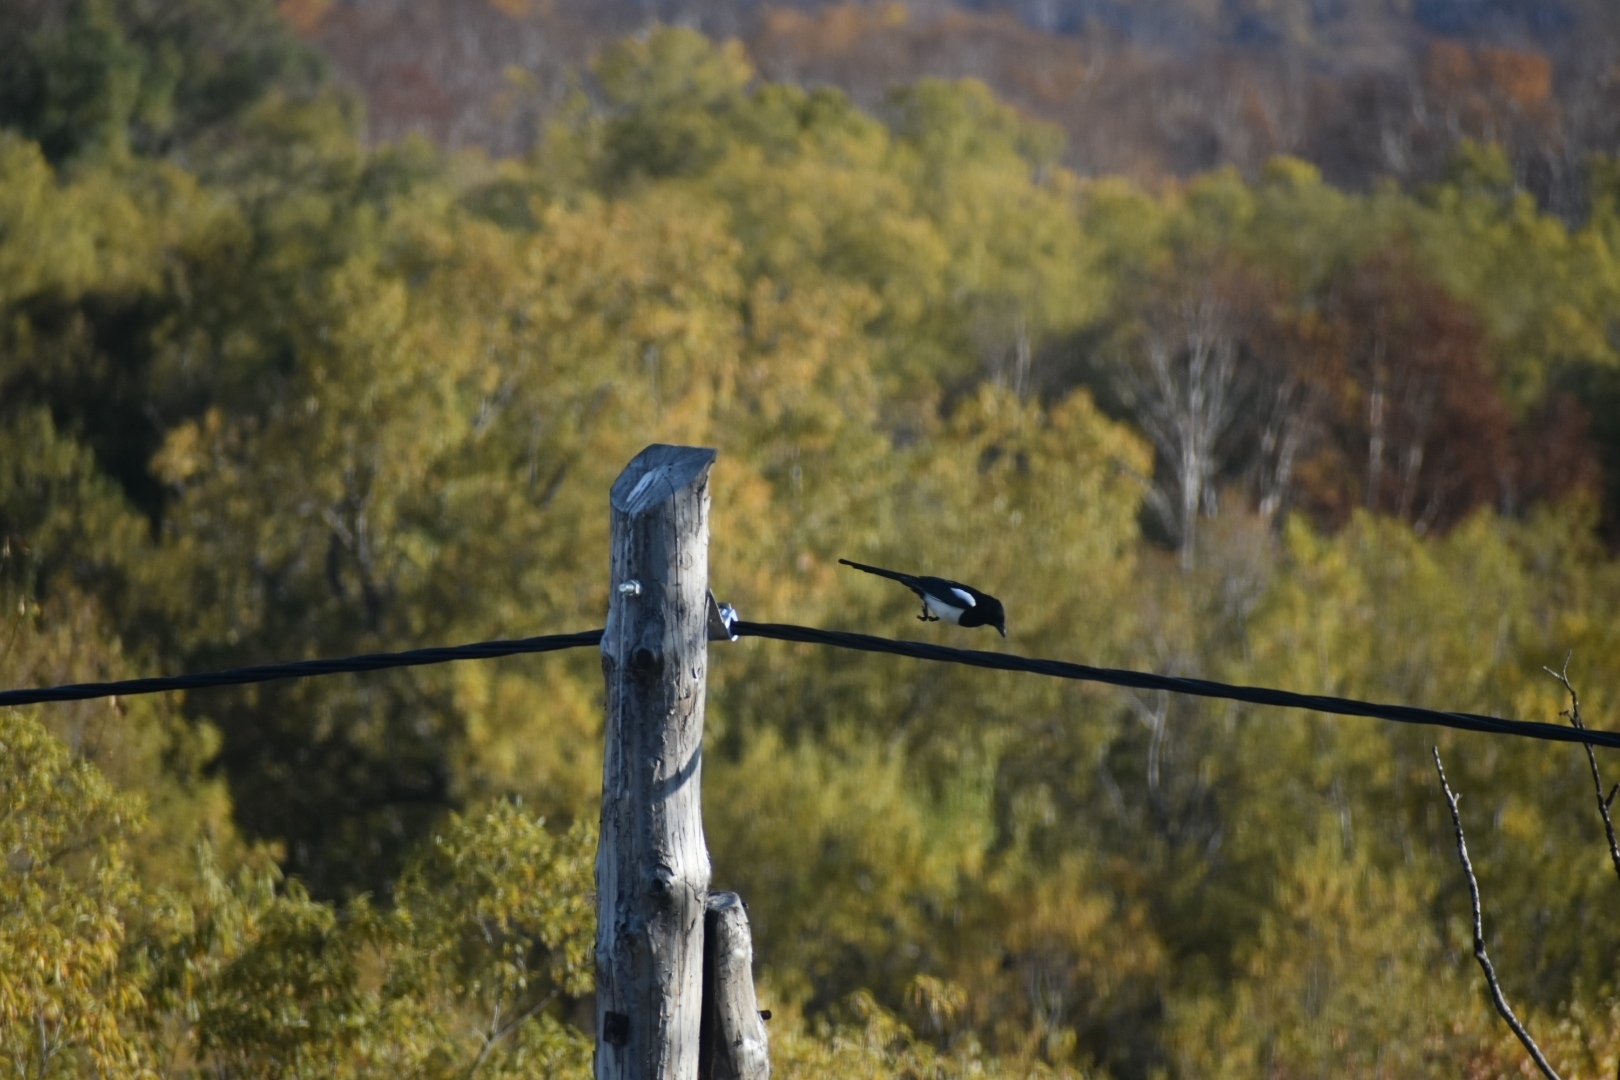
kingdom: Animalia
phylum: Chordata
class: Aves
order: Passeriformes
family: Corvidae
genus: Pica
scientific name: Pica pica
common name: Eurasian magpie
